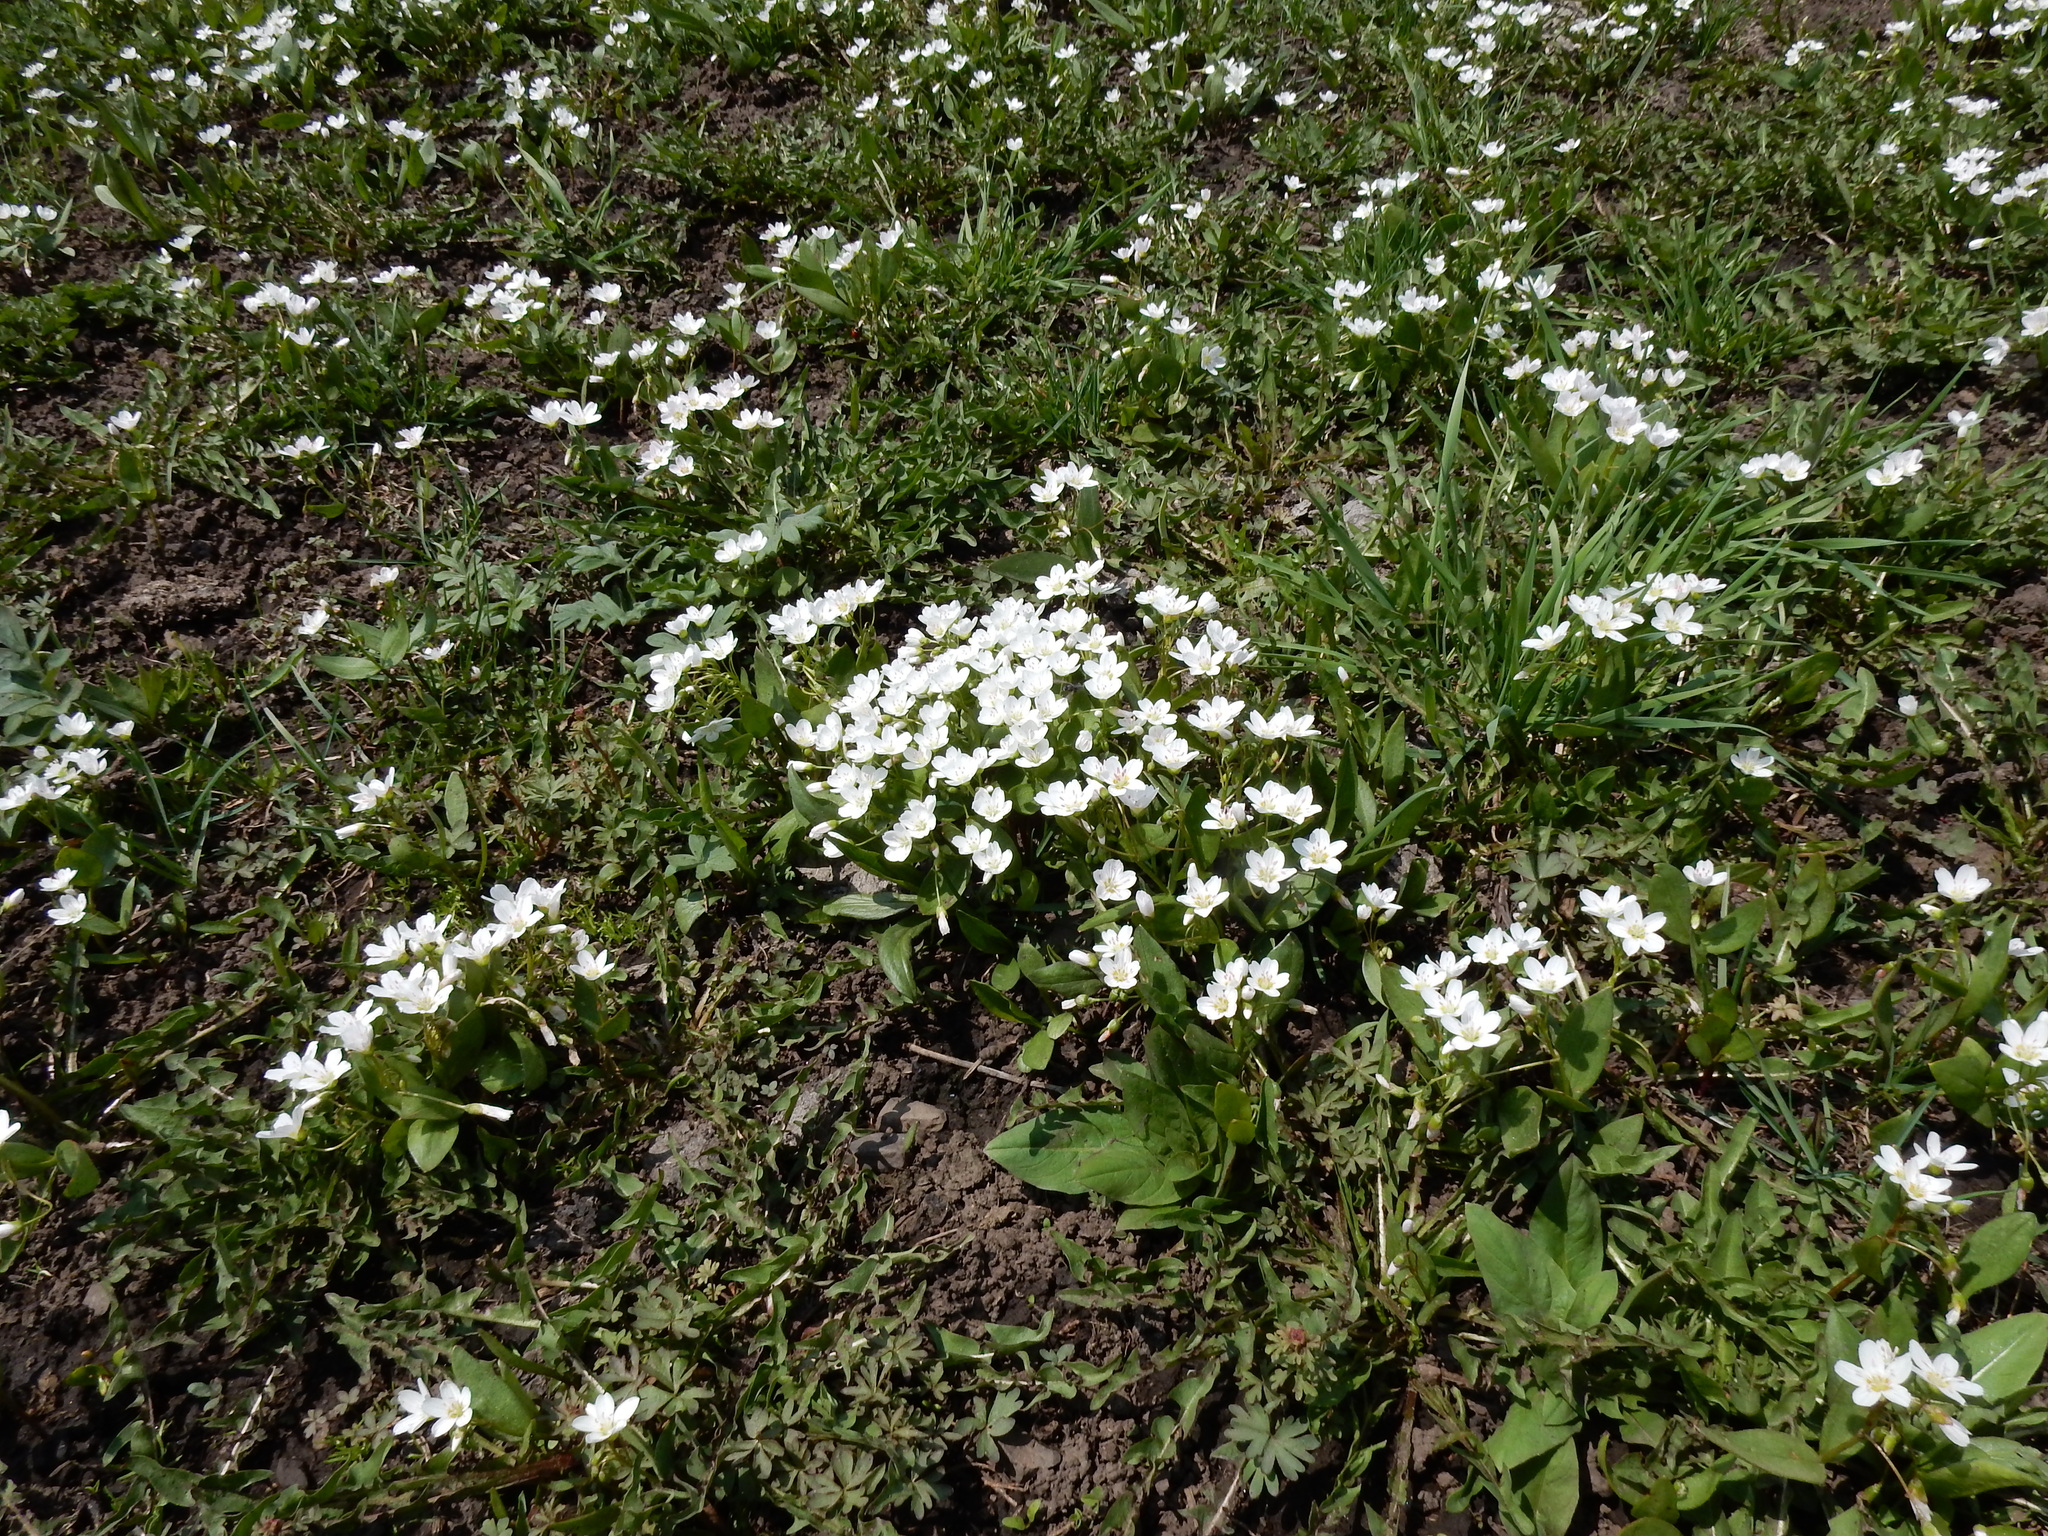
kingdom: Plantae
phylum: Tracheophyta
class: Magnoliopsida
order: Caryophyllales
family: Montiaceae
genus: Claytonia
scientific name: Claytonia lanceolata
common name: Western spring-beauty
